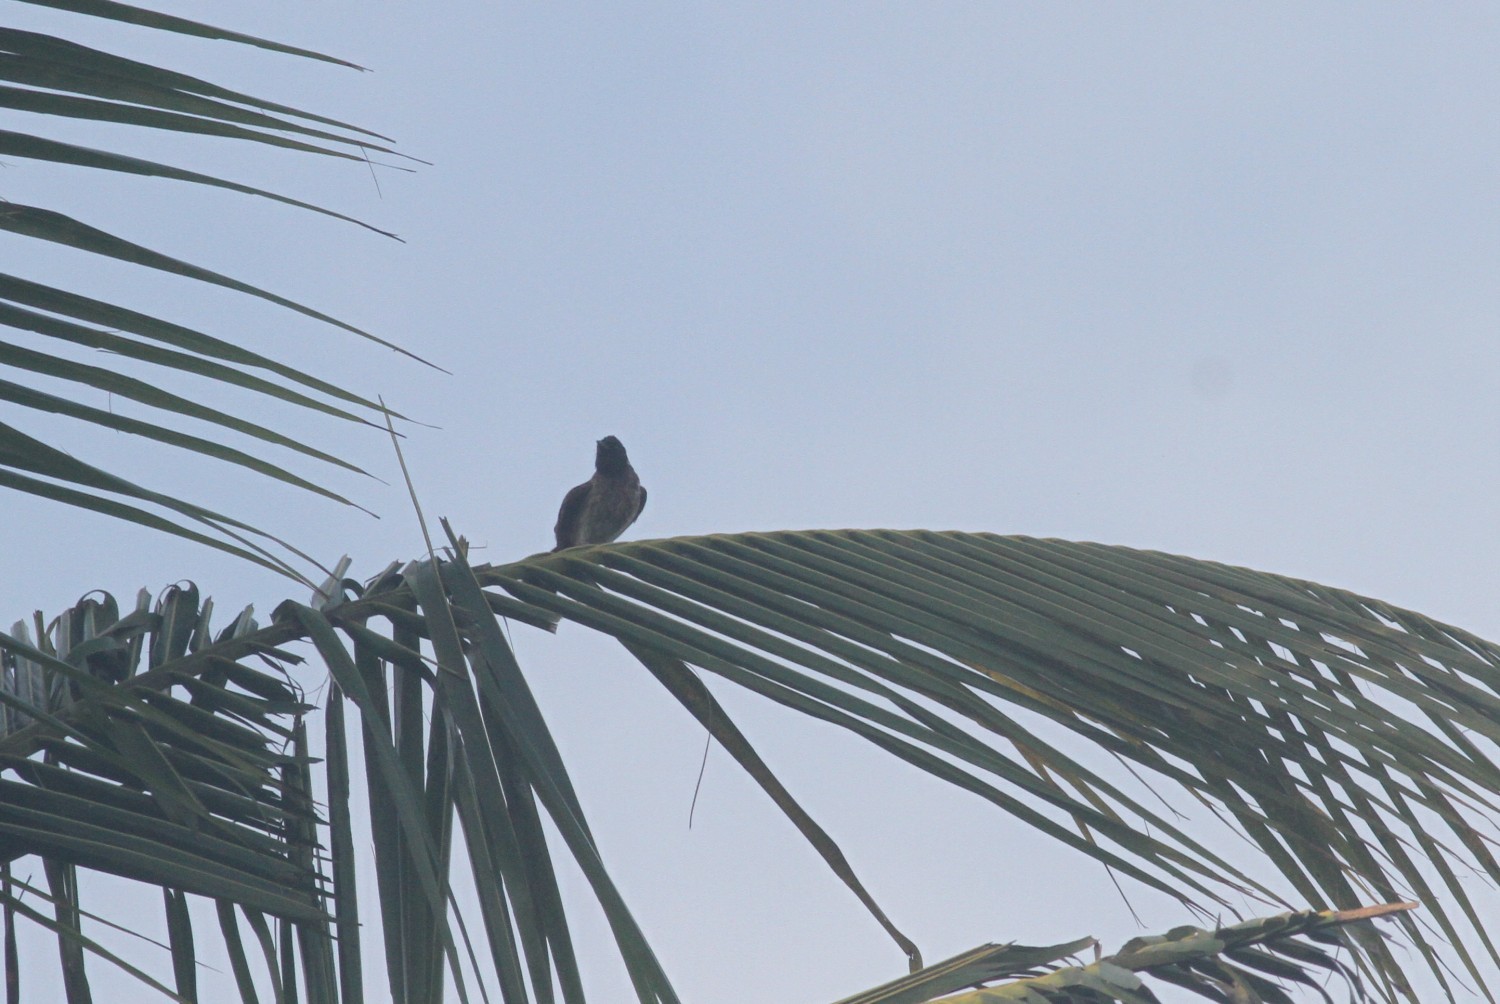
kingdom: Animalia
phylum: Chordata
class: Aves
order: Passeriformes
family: Pycnonotidae
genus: Pycnonotus
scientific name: Pycnonotus cafer
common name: Red-vented bulbul
